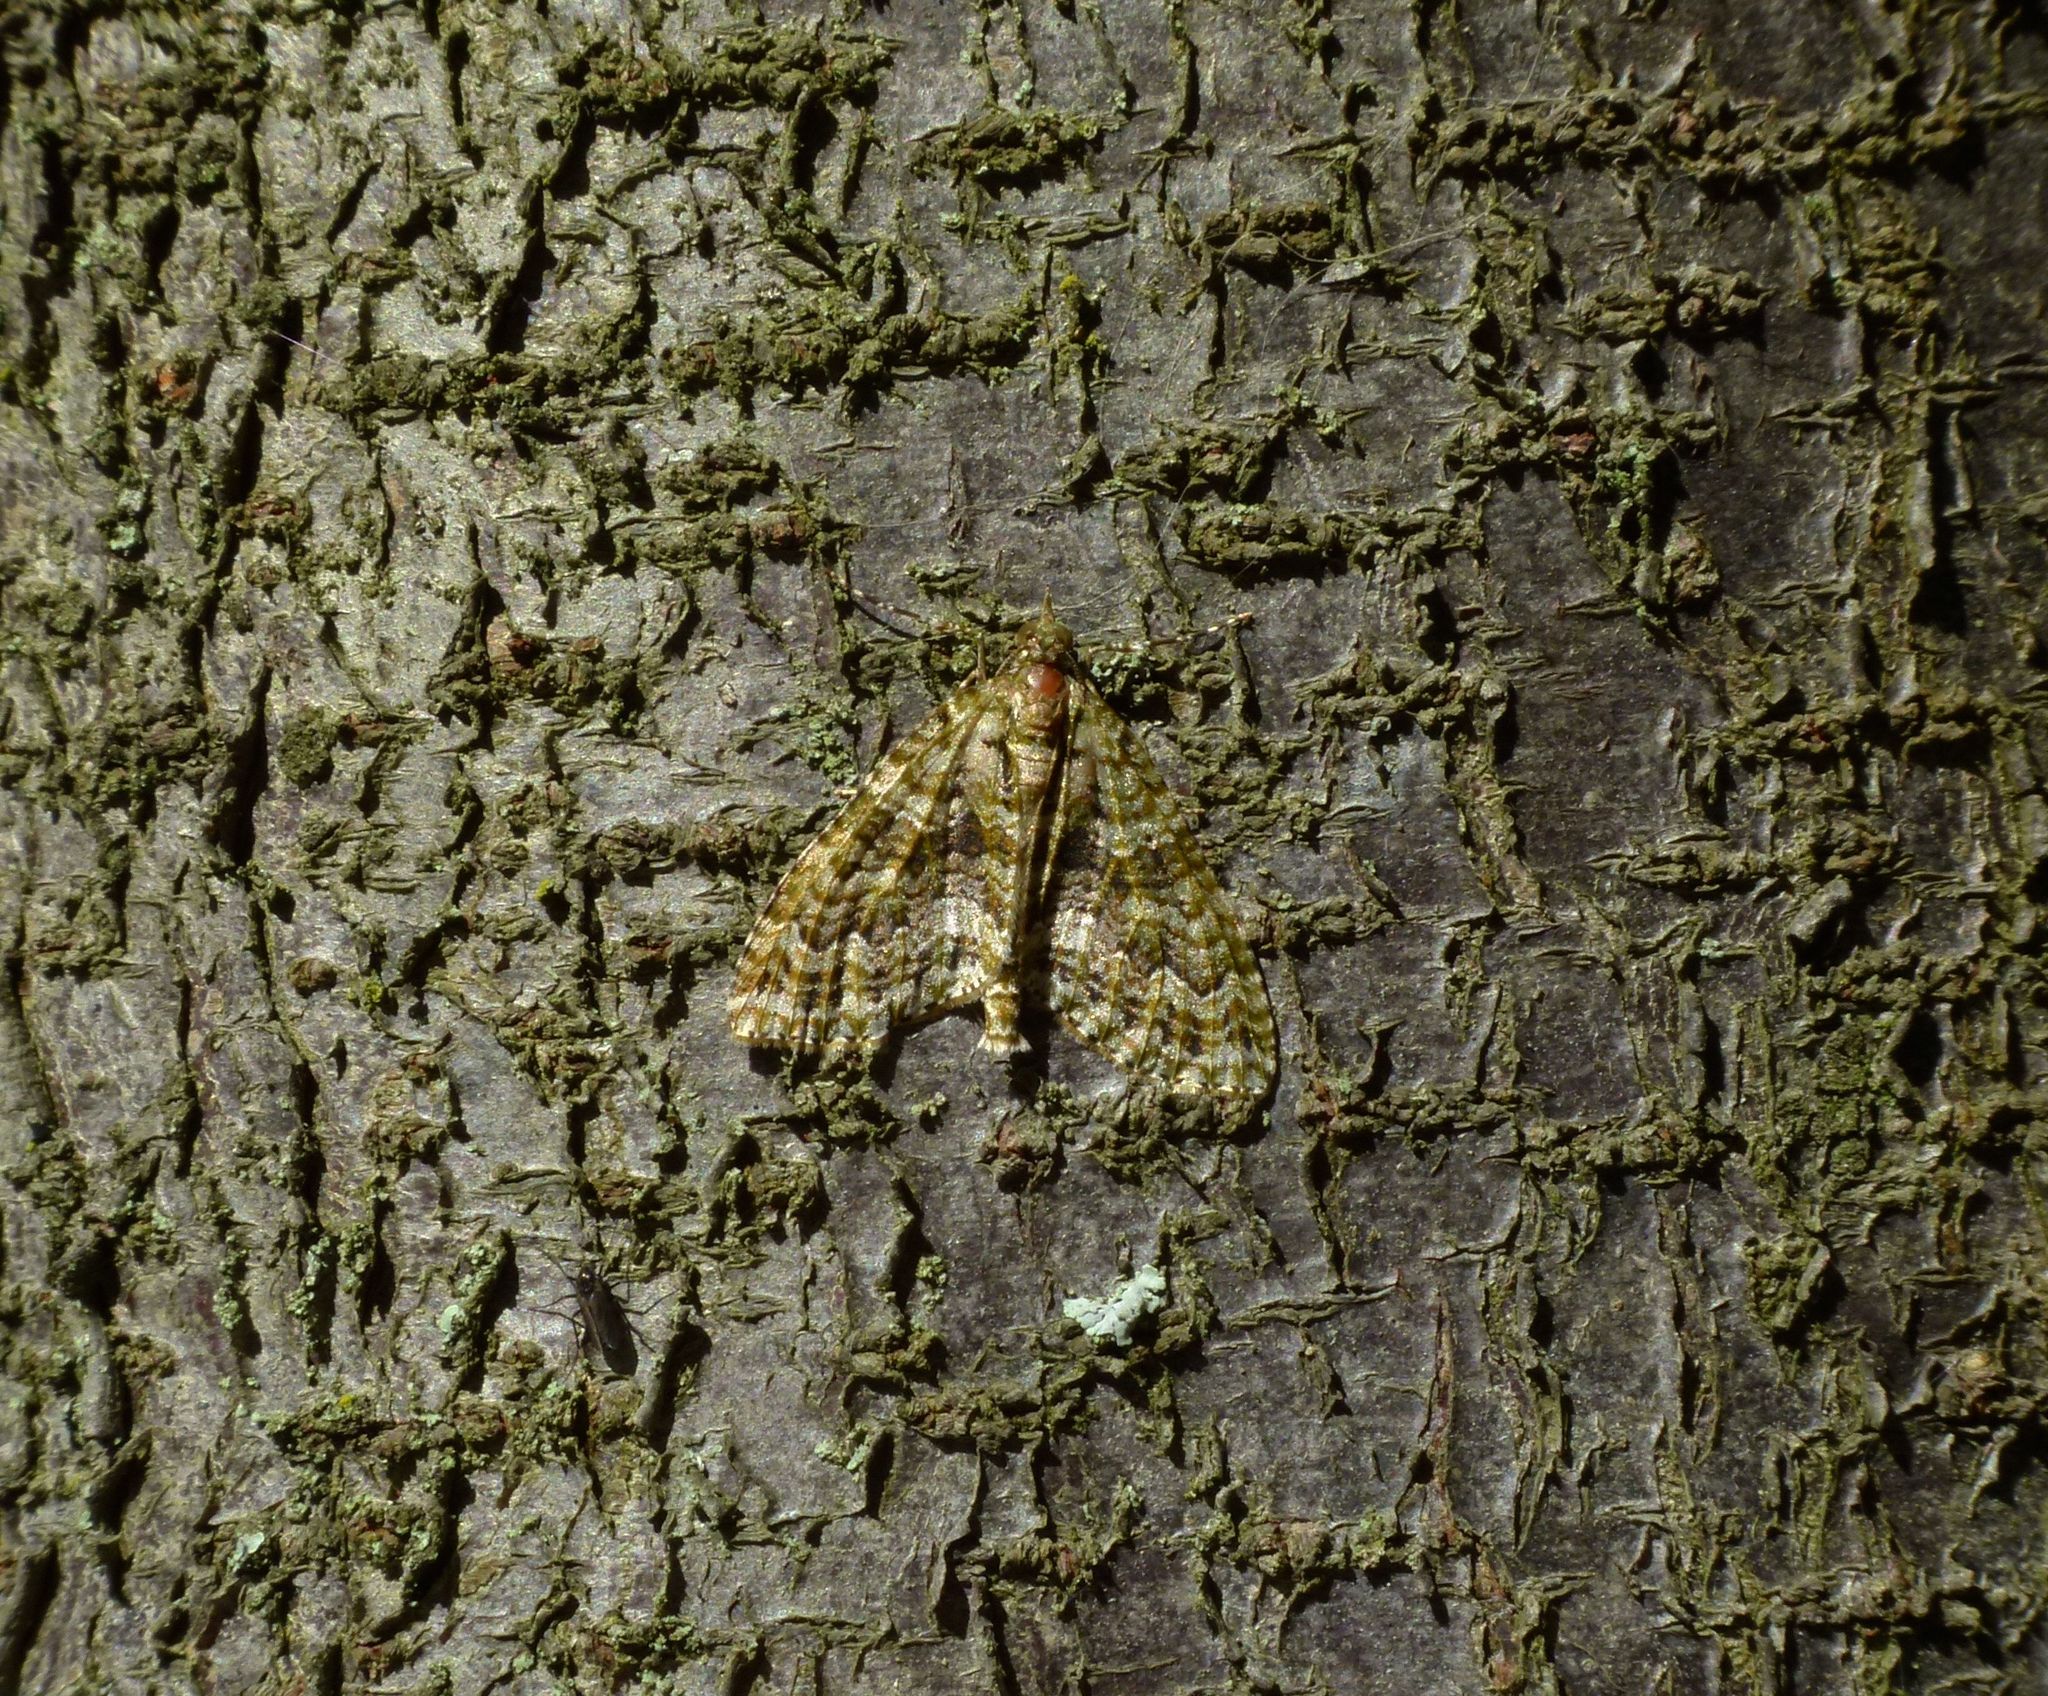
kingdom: Animalia
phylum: Arthropoda
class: Insecta
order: Lepidoptera
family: Geometridae
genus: Tatosoma
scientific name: Tatosoma agrionata
